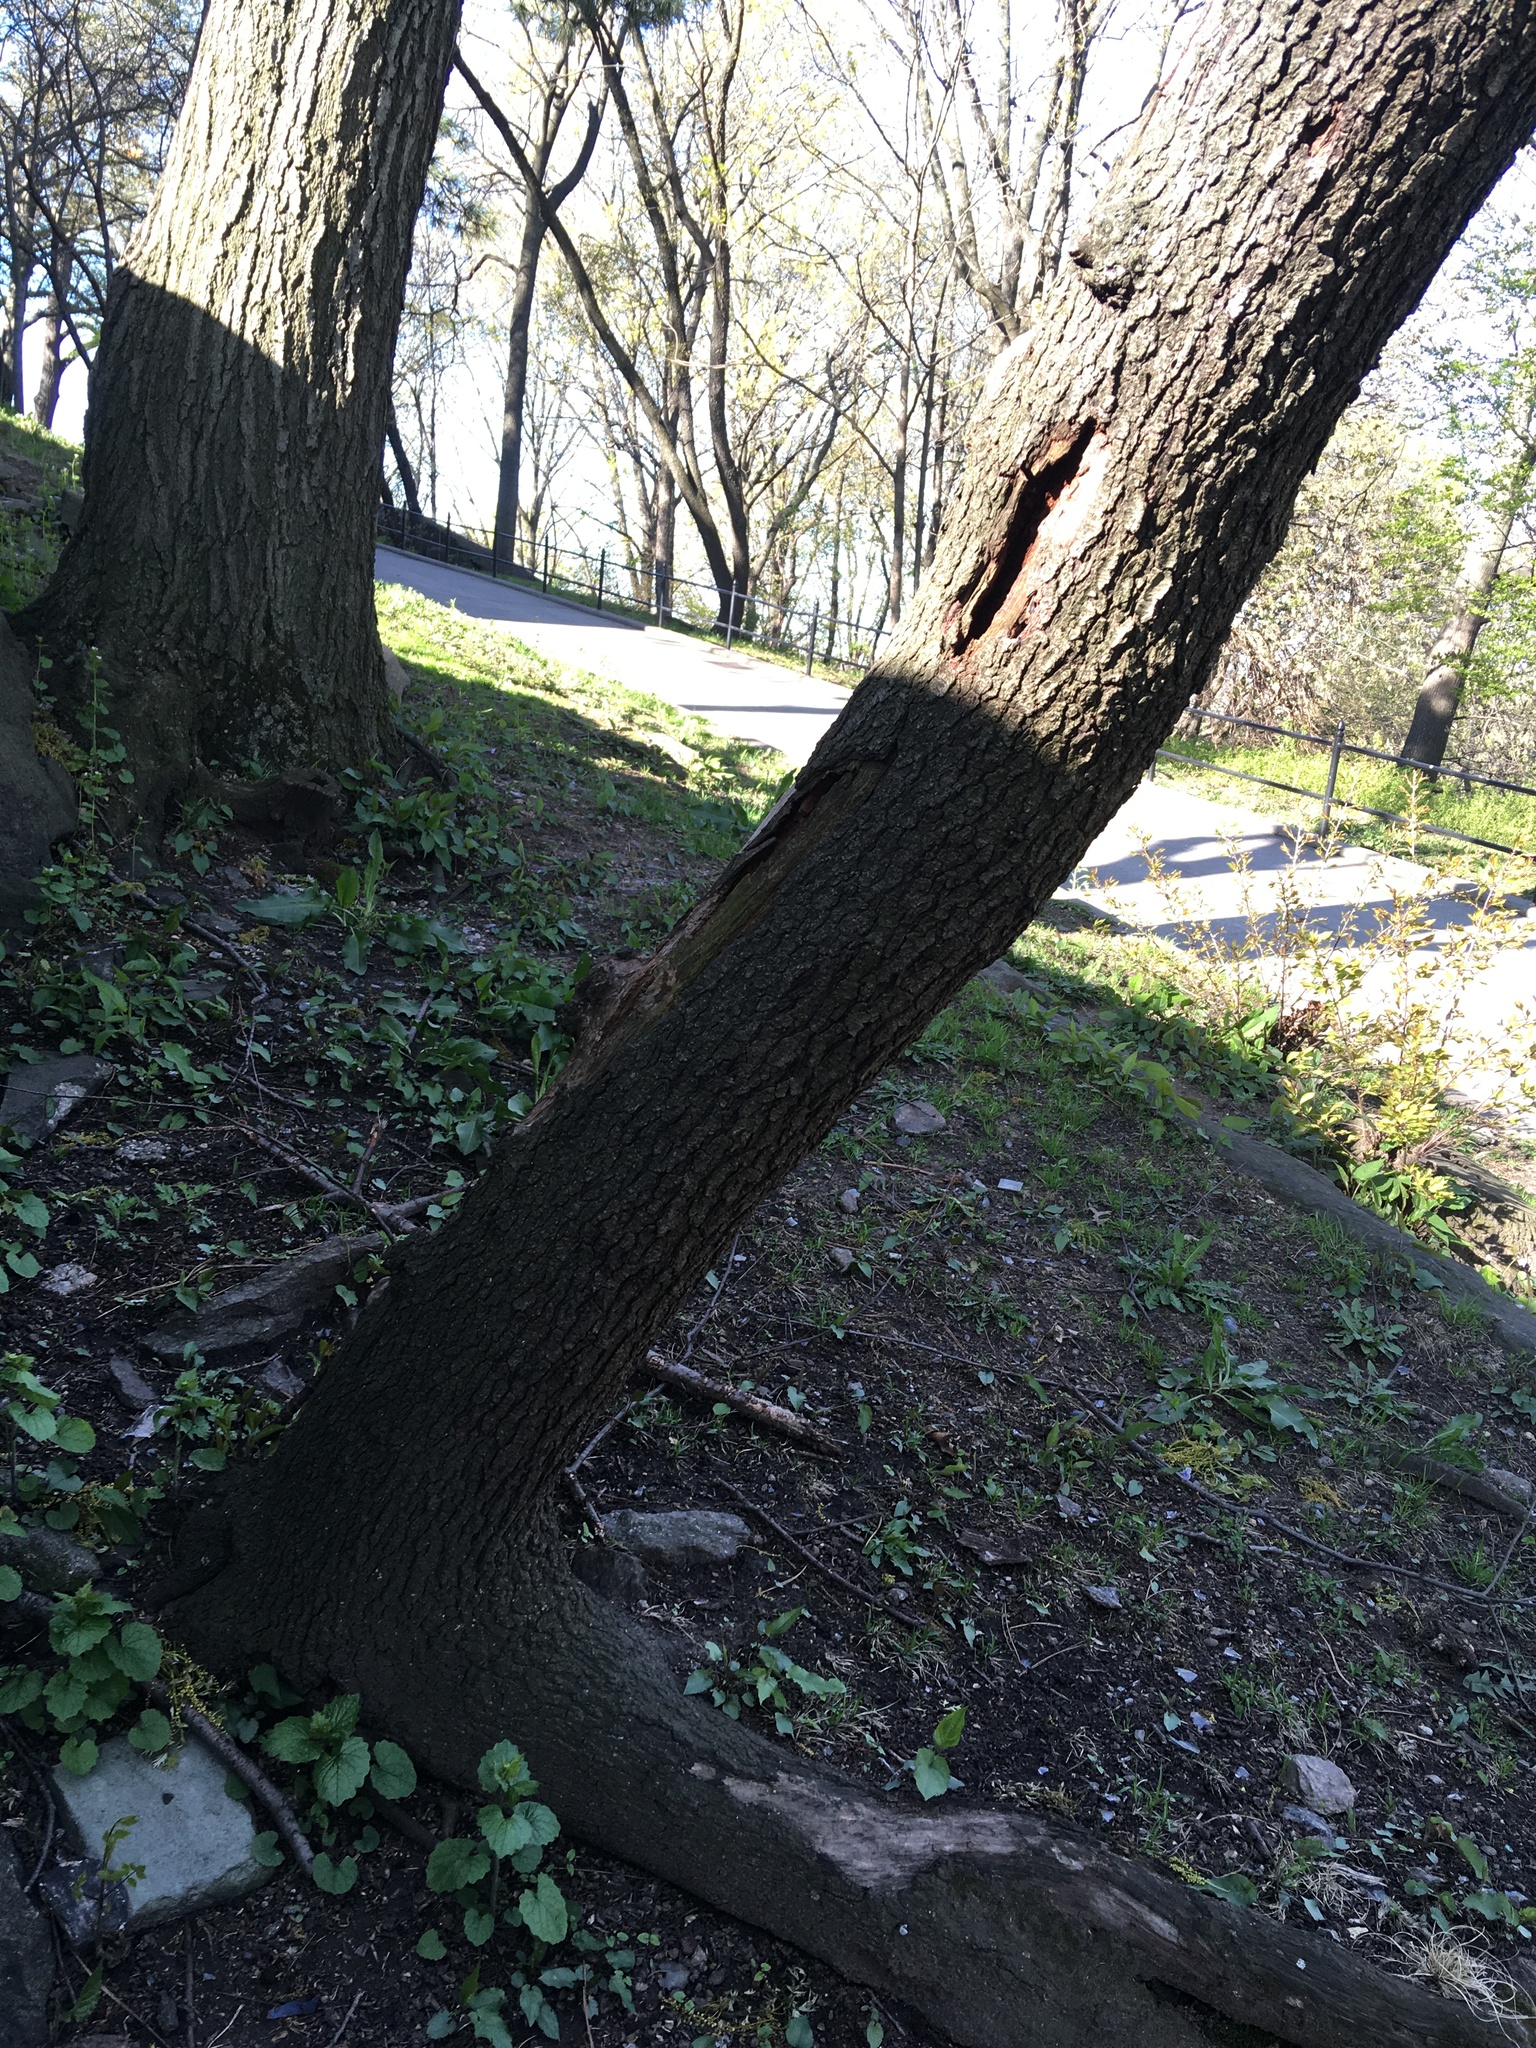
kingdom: Plantae
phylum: Tracheophyta
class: Magnoliopsida
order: Rosales
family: Rosaceae
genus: Prunus
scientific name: Prunus serotina
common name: Black cherry
